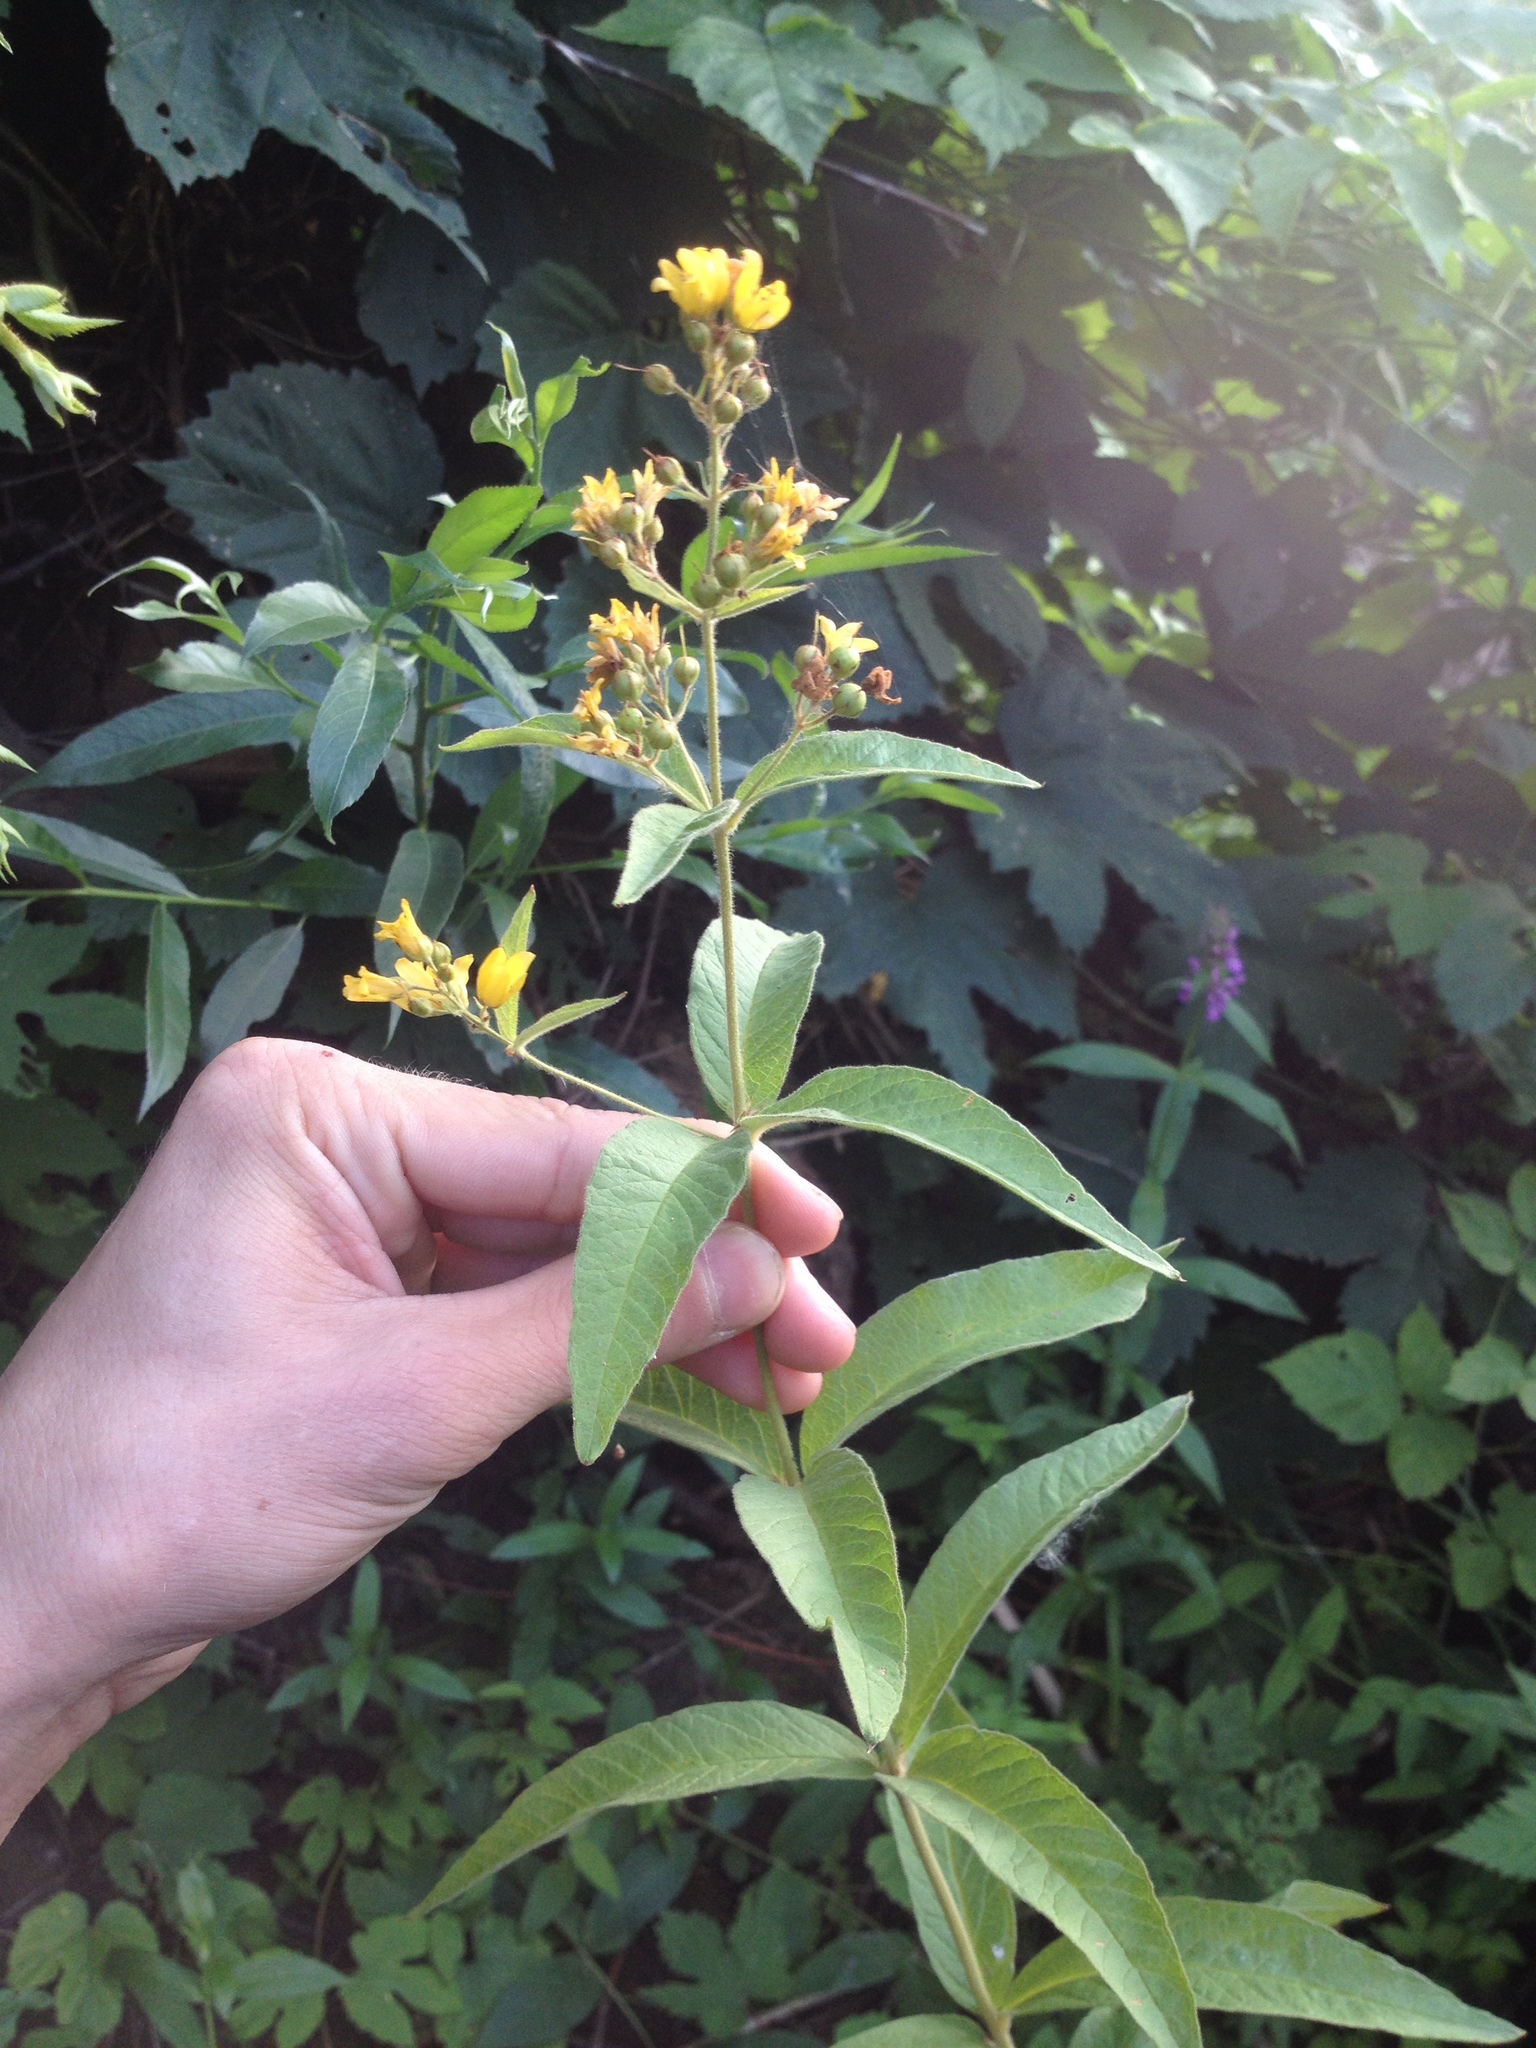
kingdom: Plantae
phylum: Tracheophyta
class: Magnoliopsida
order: Ericales
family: Primulaceae
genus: Lysimachia
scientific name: Lysimachia vulgaris
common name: Yellow loosestrife
